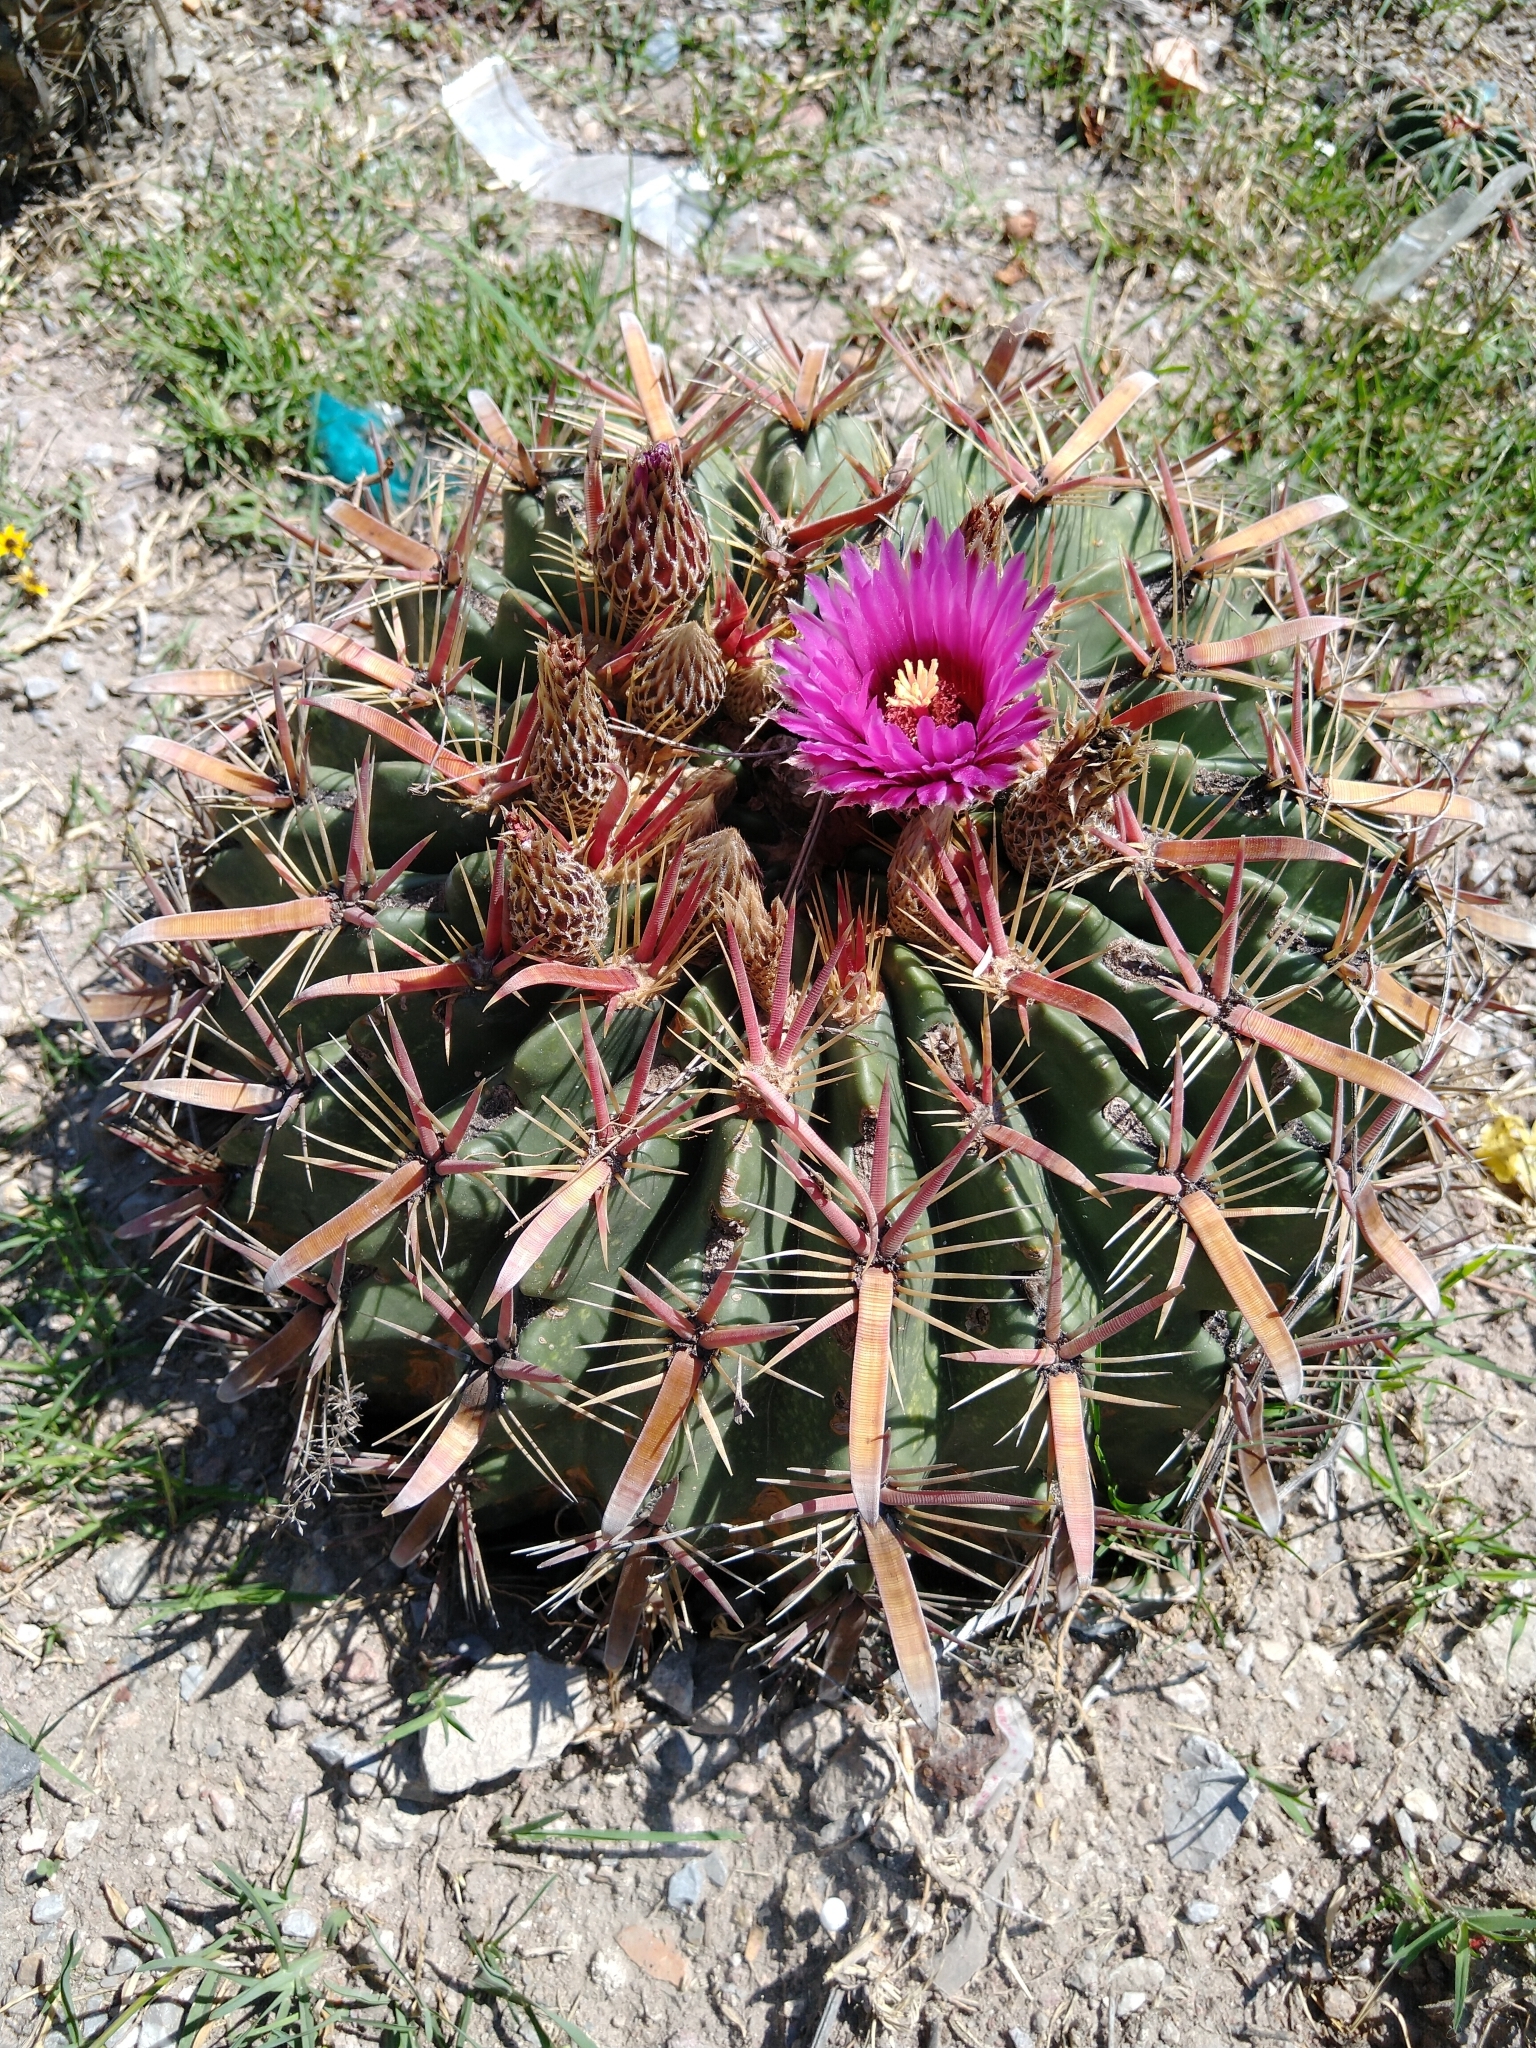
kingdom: Plantae
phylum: Tracheophyta
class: Magnoliopsida
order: Caryophyllales
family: Cactaceae
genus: Ferocactus
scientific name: Ferocactus latispinus
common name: Devil's-tongue cactus
